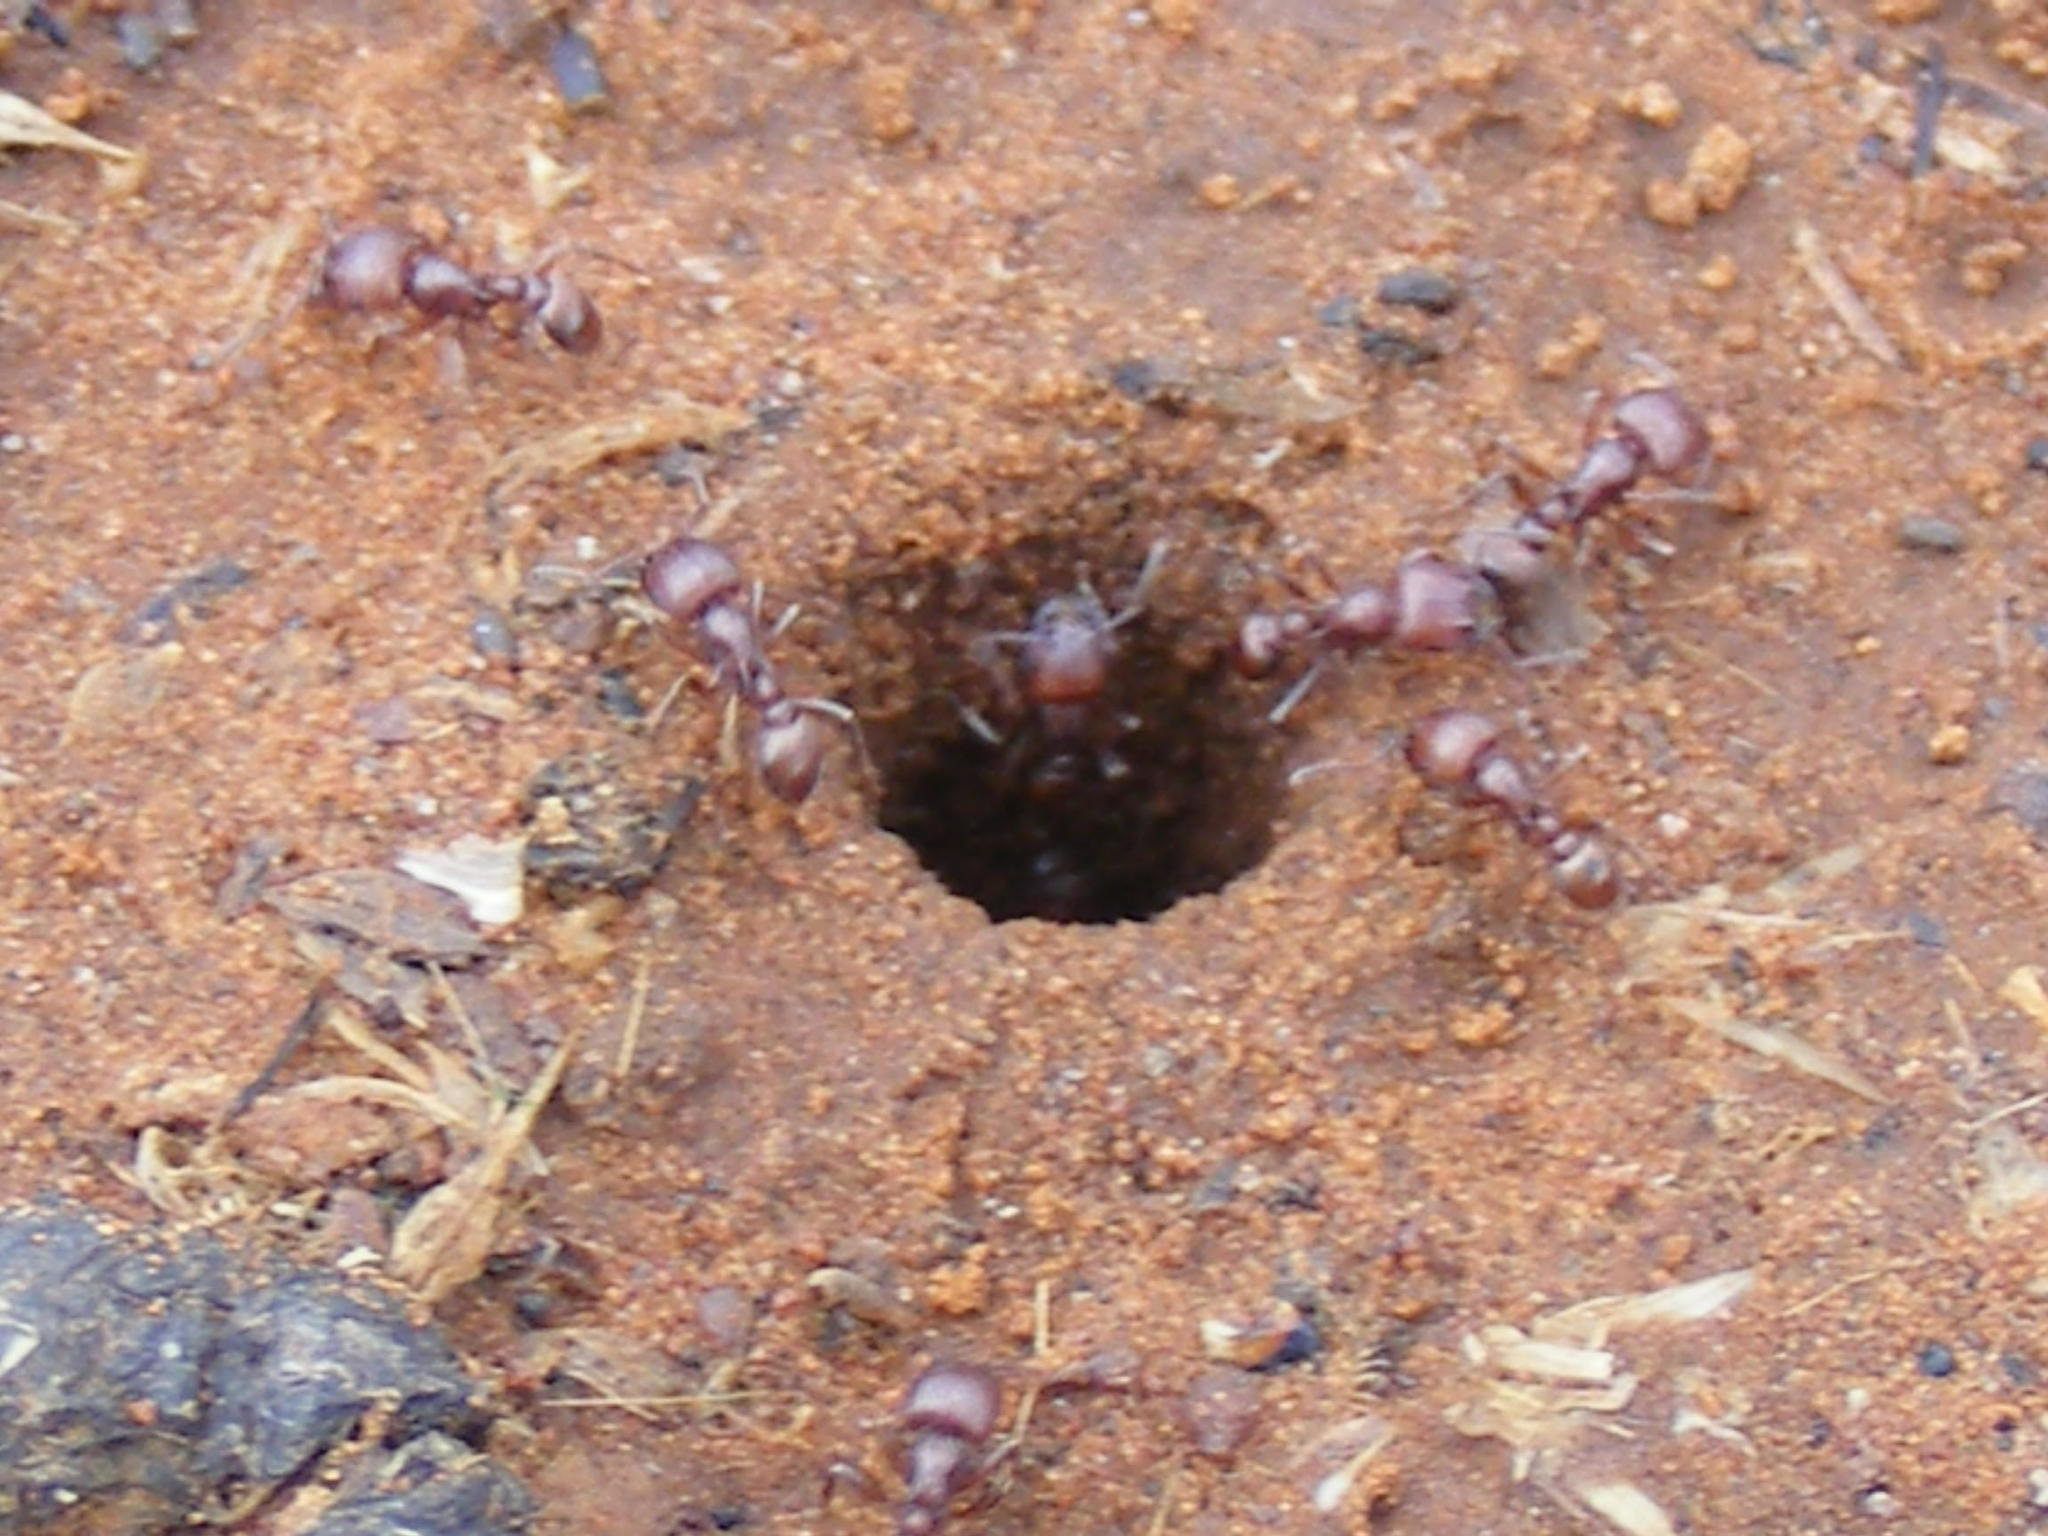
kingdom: Animalia
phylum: Arthropoda
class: Insecta
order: Hymenoptera
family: Formicidae
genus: Tetramorium
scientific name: Tetramorium setuliferum
